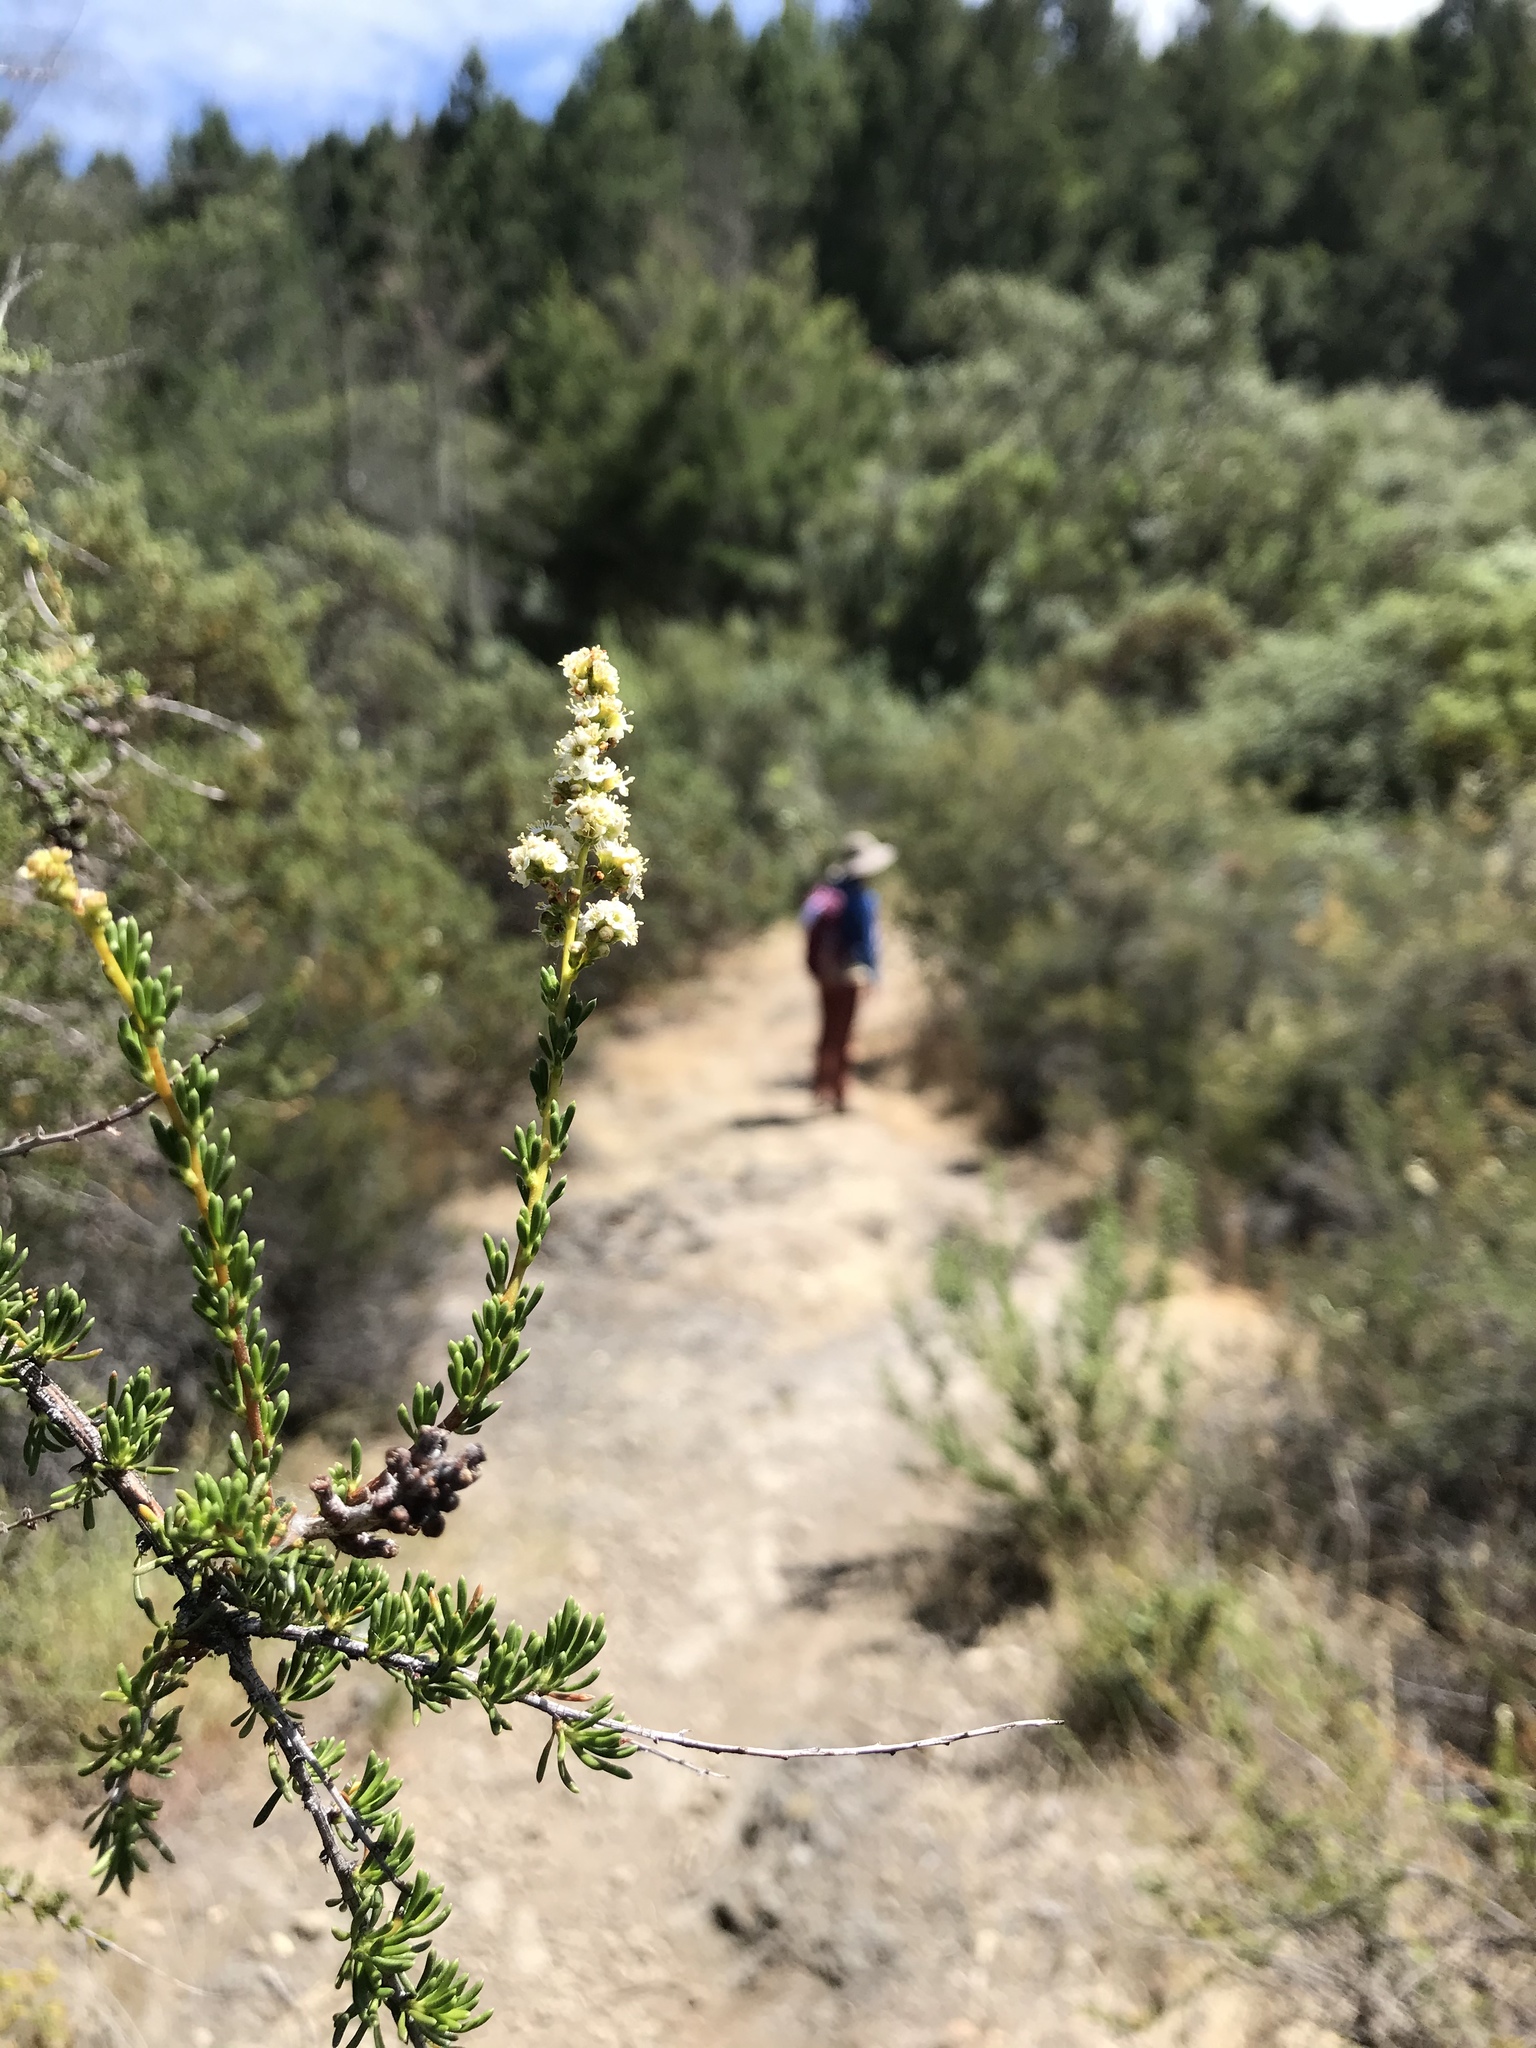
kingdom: Plantae
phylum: Tracheophyta
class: Magnoliopsida
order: Rosales
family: Rosaceae
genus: Adenostoma
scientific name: Adenostoma fasciculatum
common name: Chamise
